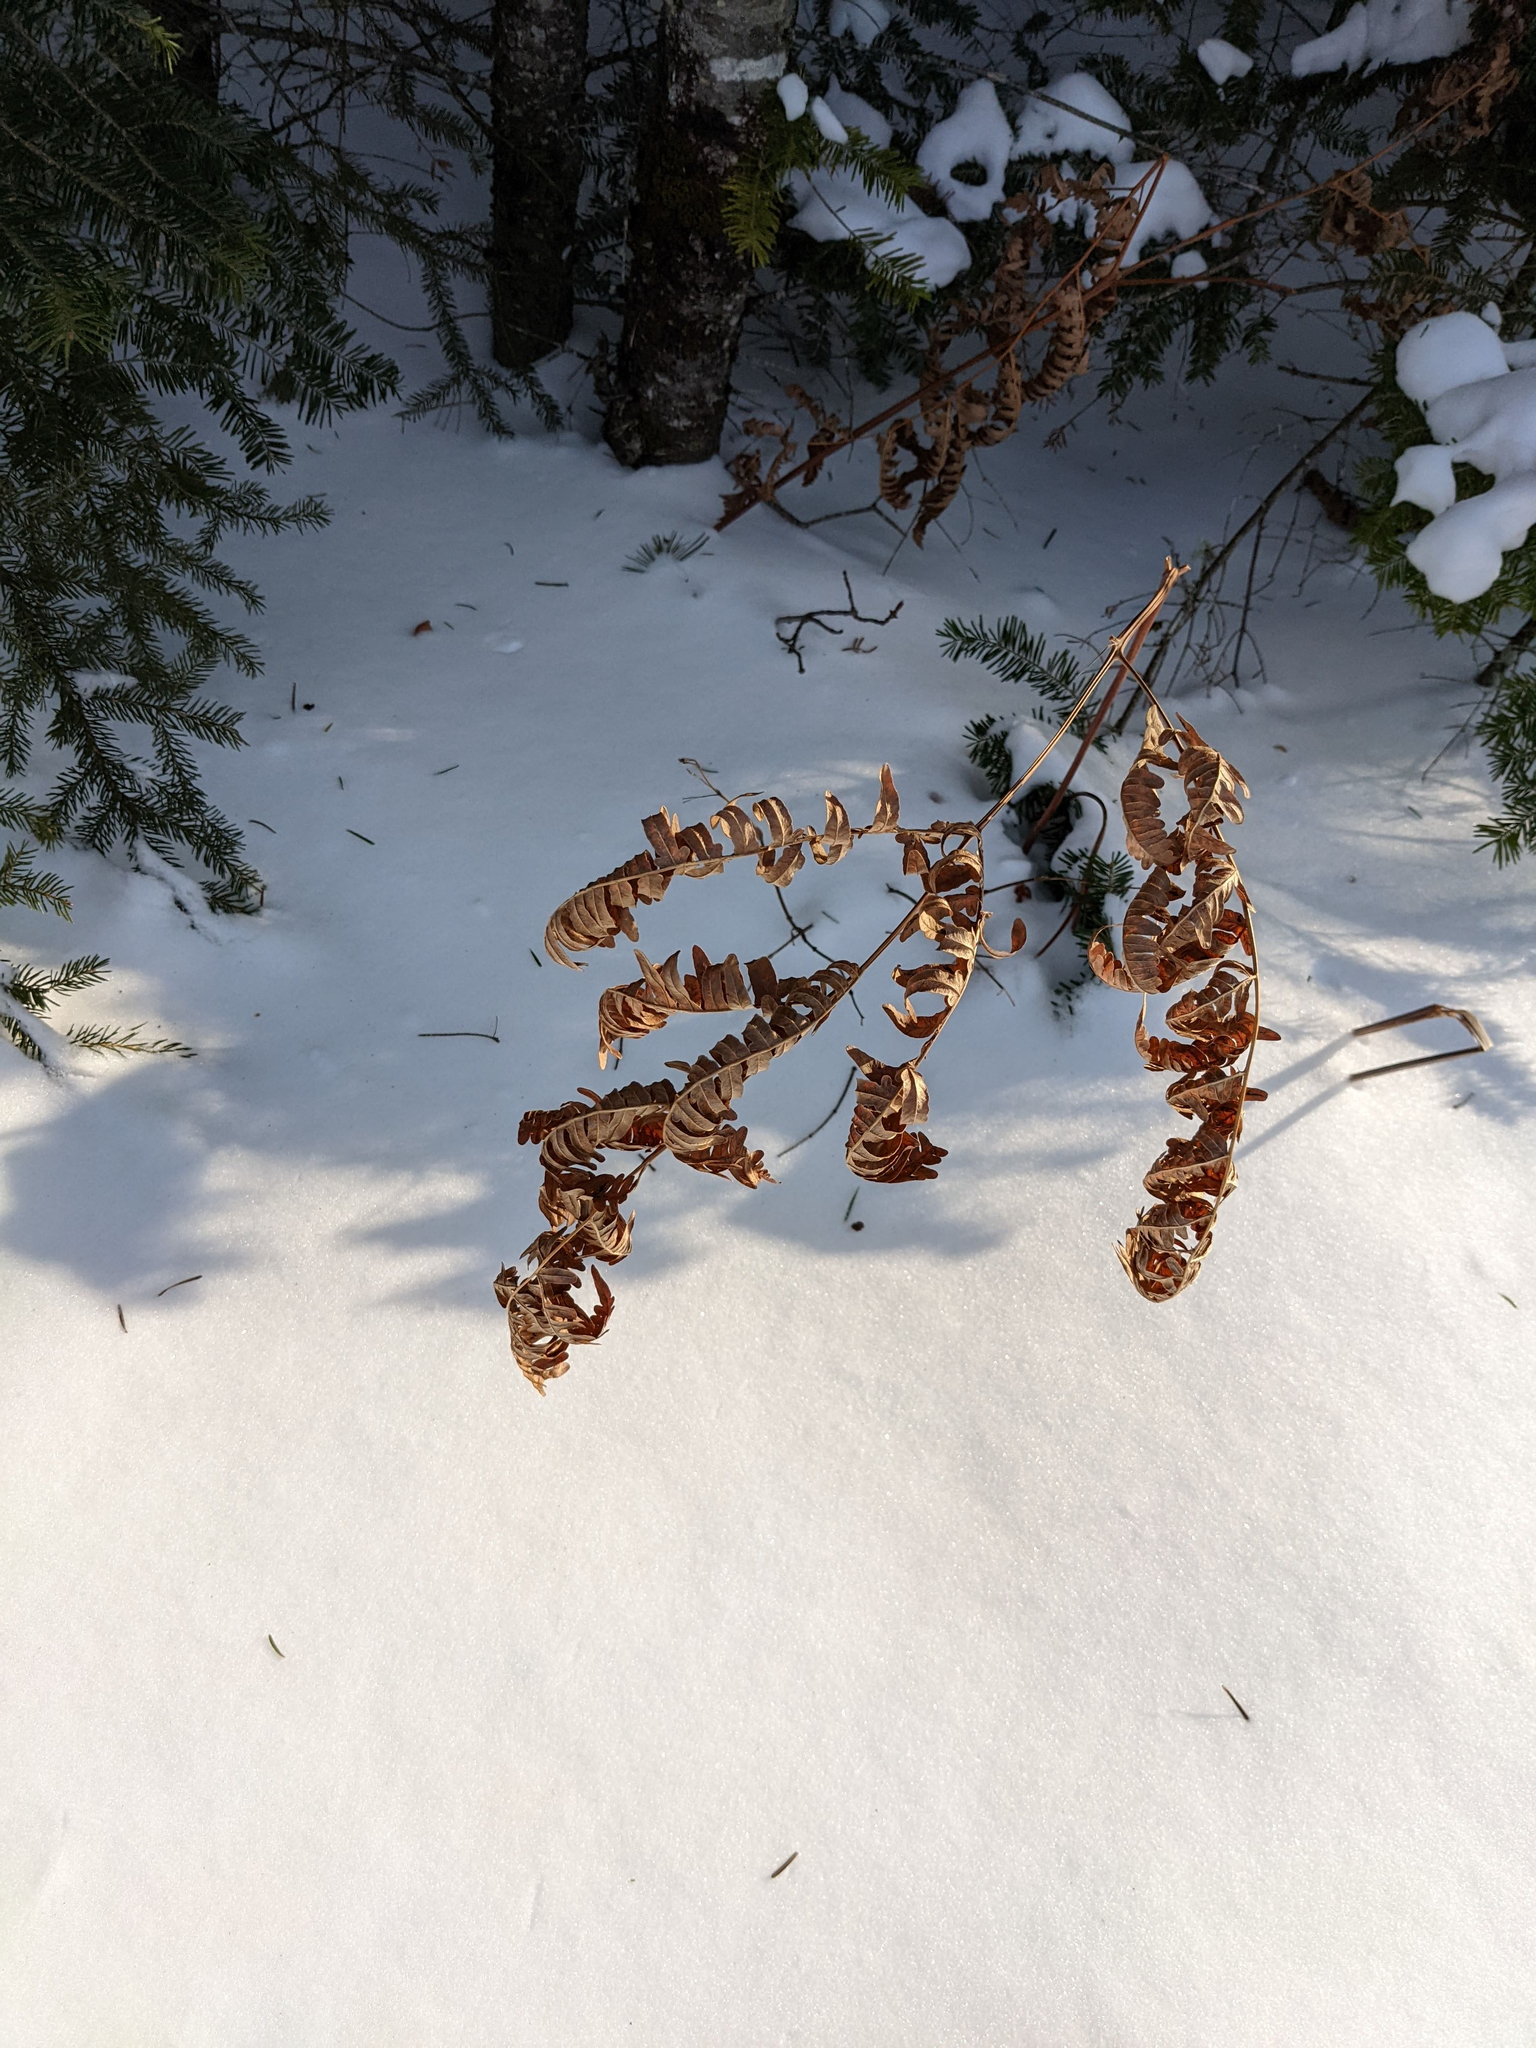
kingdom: Plantae
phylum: Tracheophyta
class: Polypodiopsida
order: Polypodiales
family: Dennstaedtiaceae
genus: Pteridium
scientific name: Pteridium aquilinum
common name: Bracken
